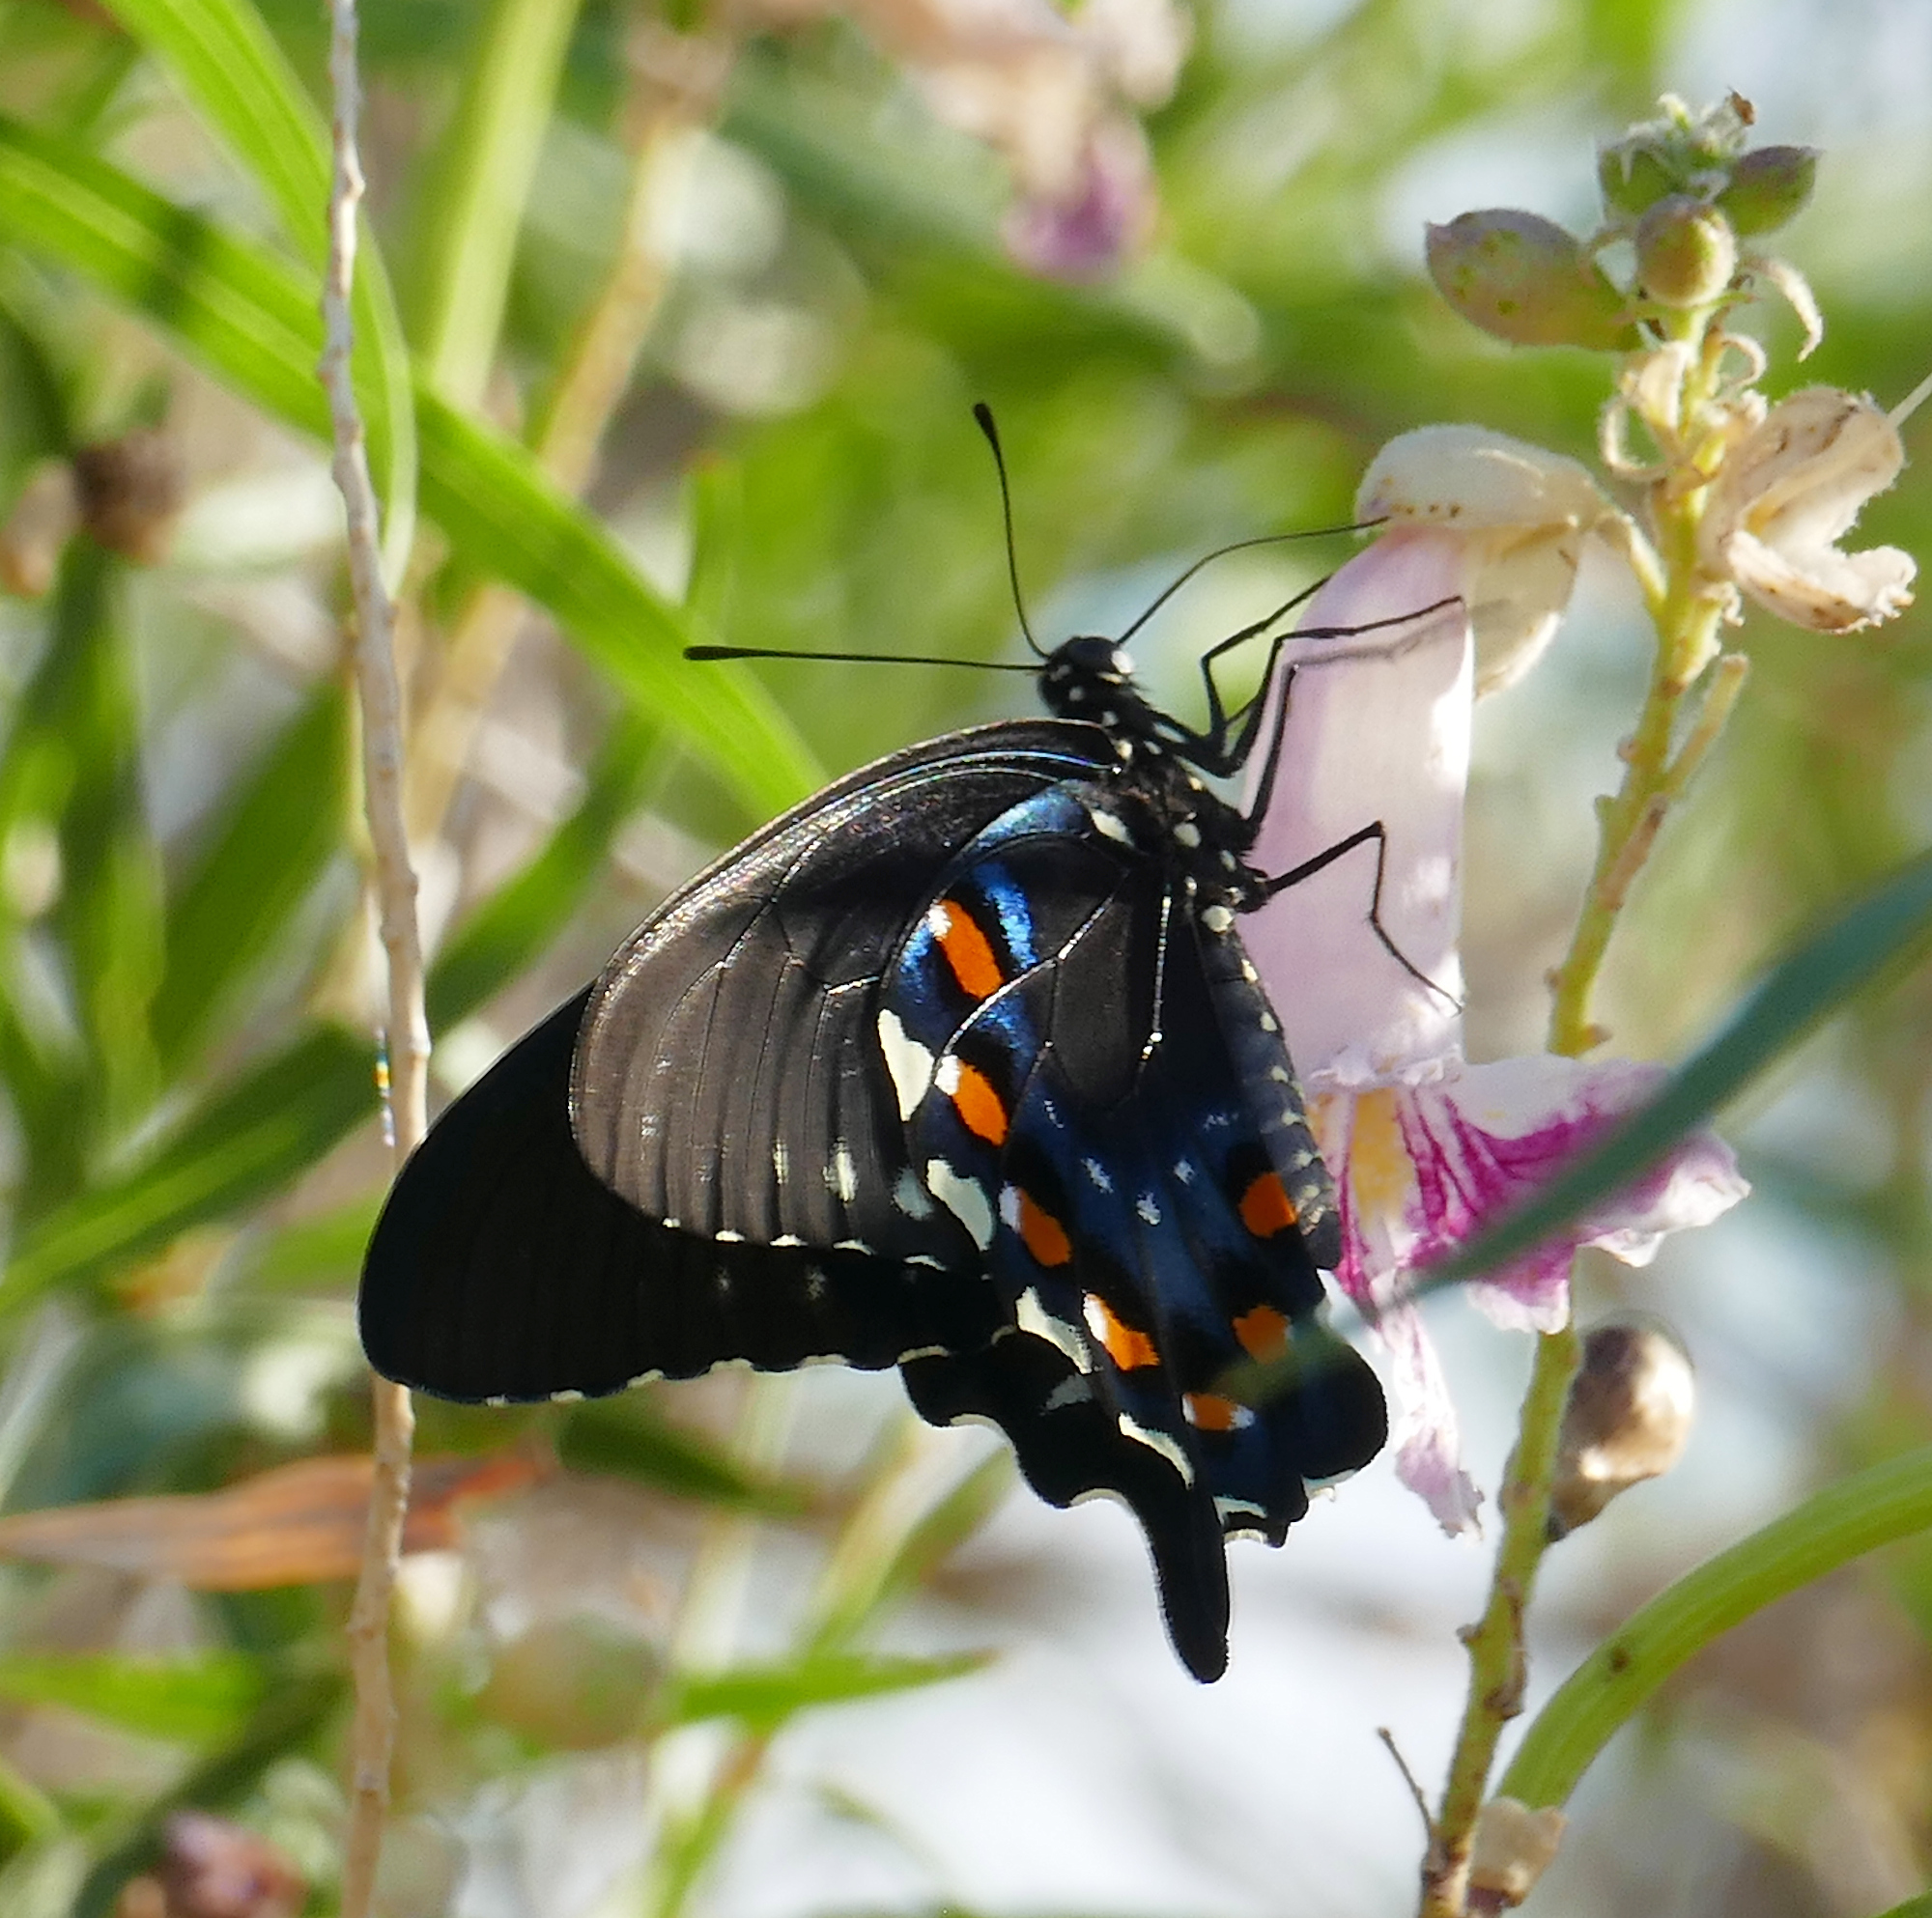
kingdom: Animalia
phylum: Arthropoda
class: Insecta
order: Lepidoptera
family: Papilionidae
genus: Battus
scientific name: Battus philenor
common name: Pipevine swallowtail
